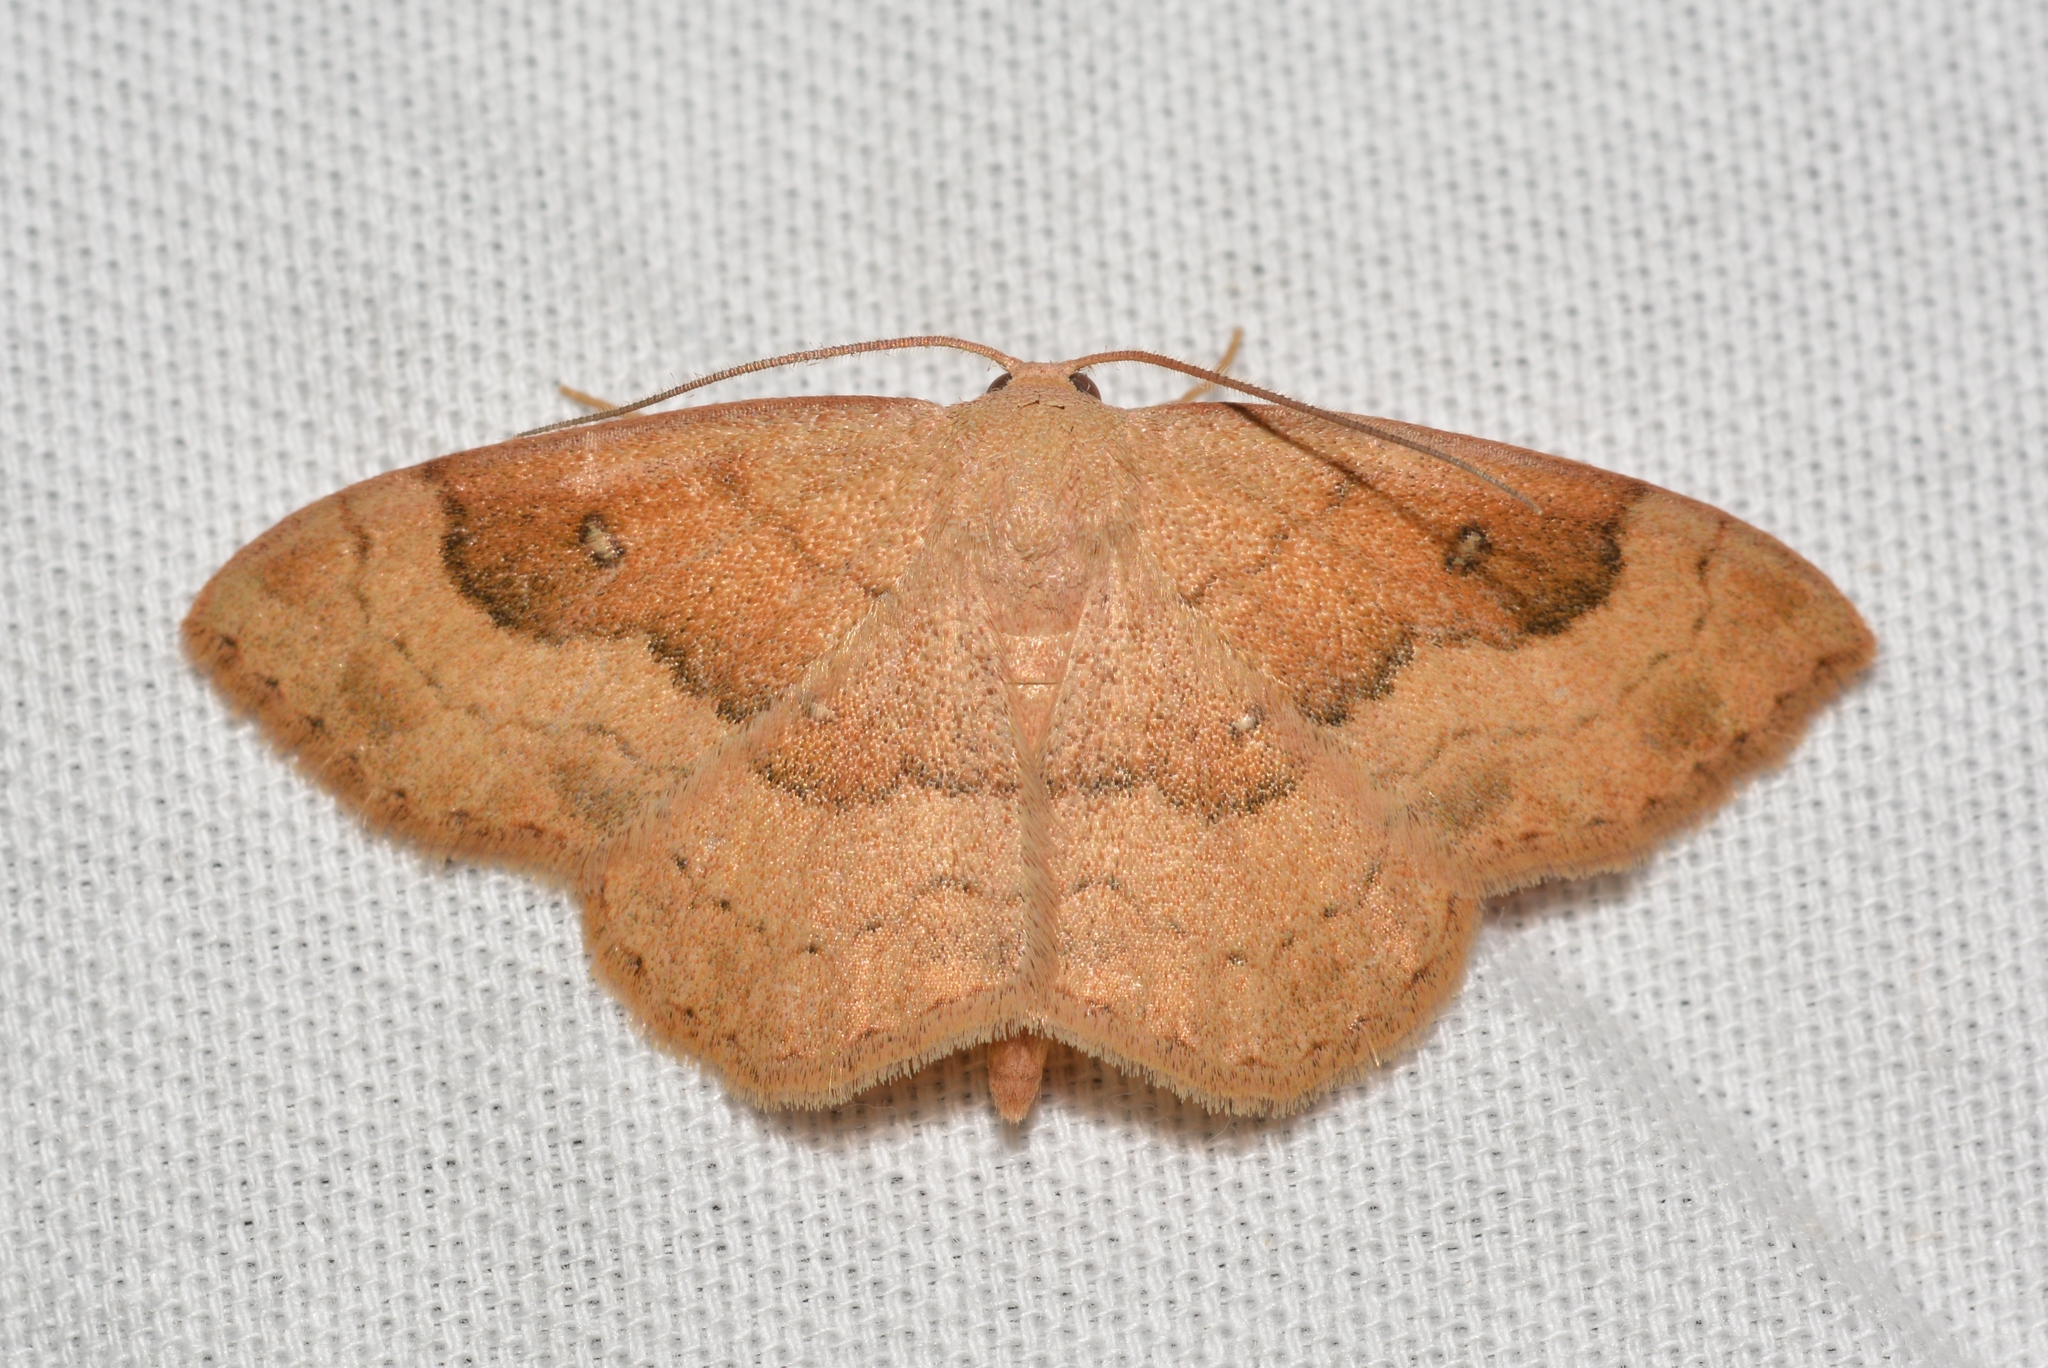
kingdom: Animalia
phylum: Arthropoda
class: Insecta
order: Lepidoptera
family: Geometridae
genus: Semaeopus
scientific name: Semaeopus gracilata
